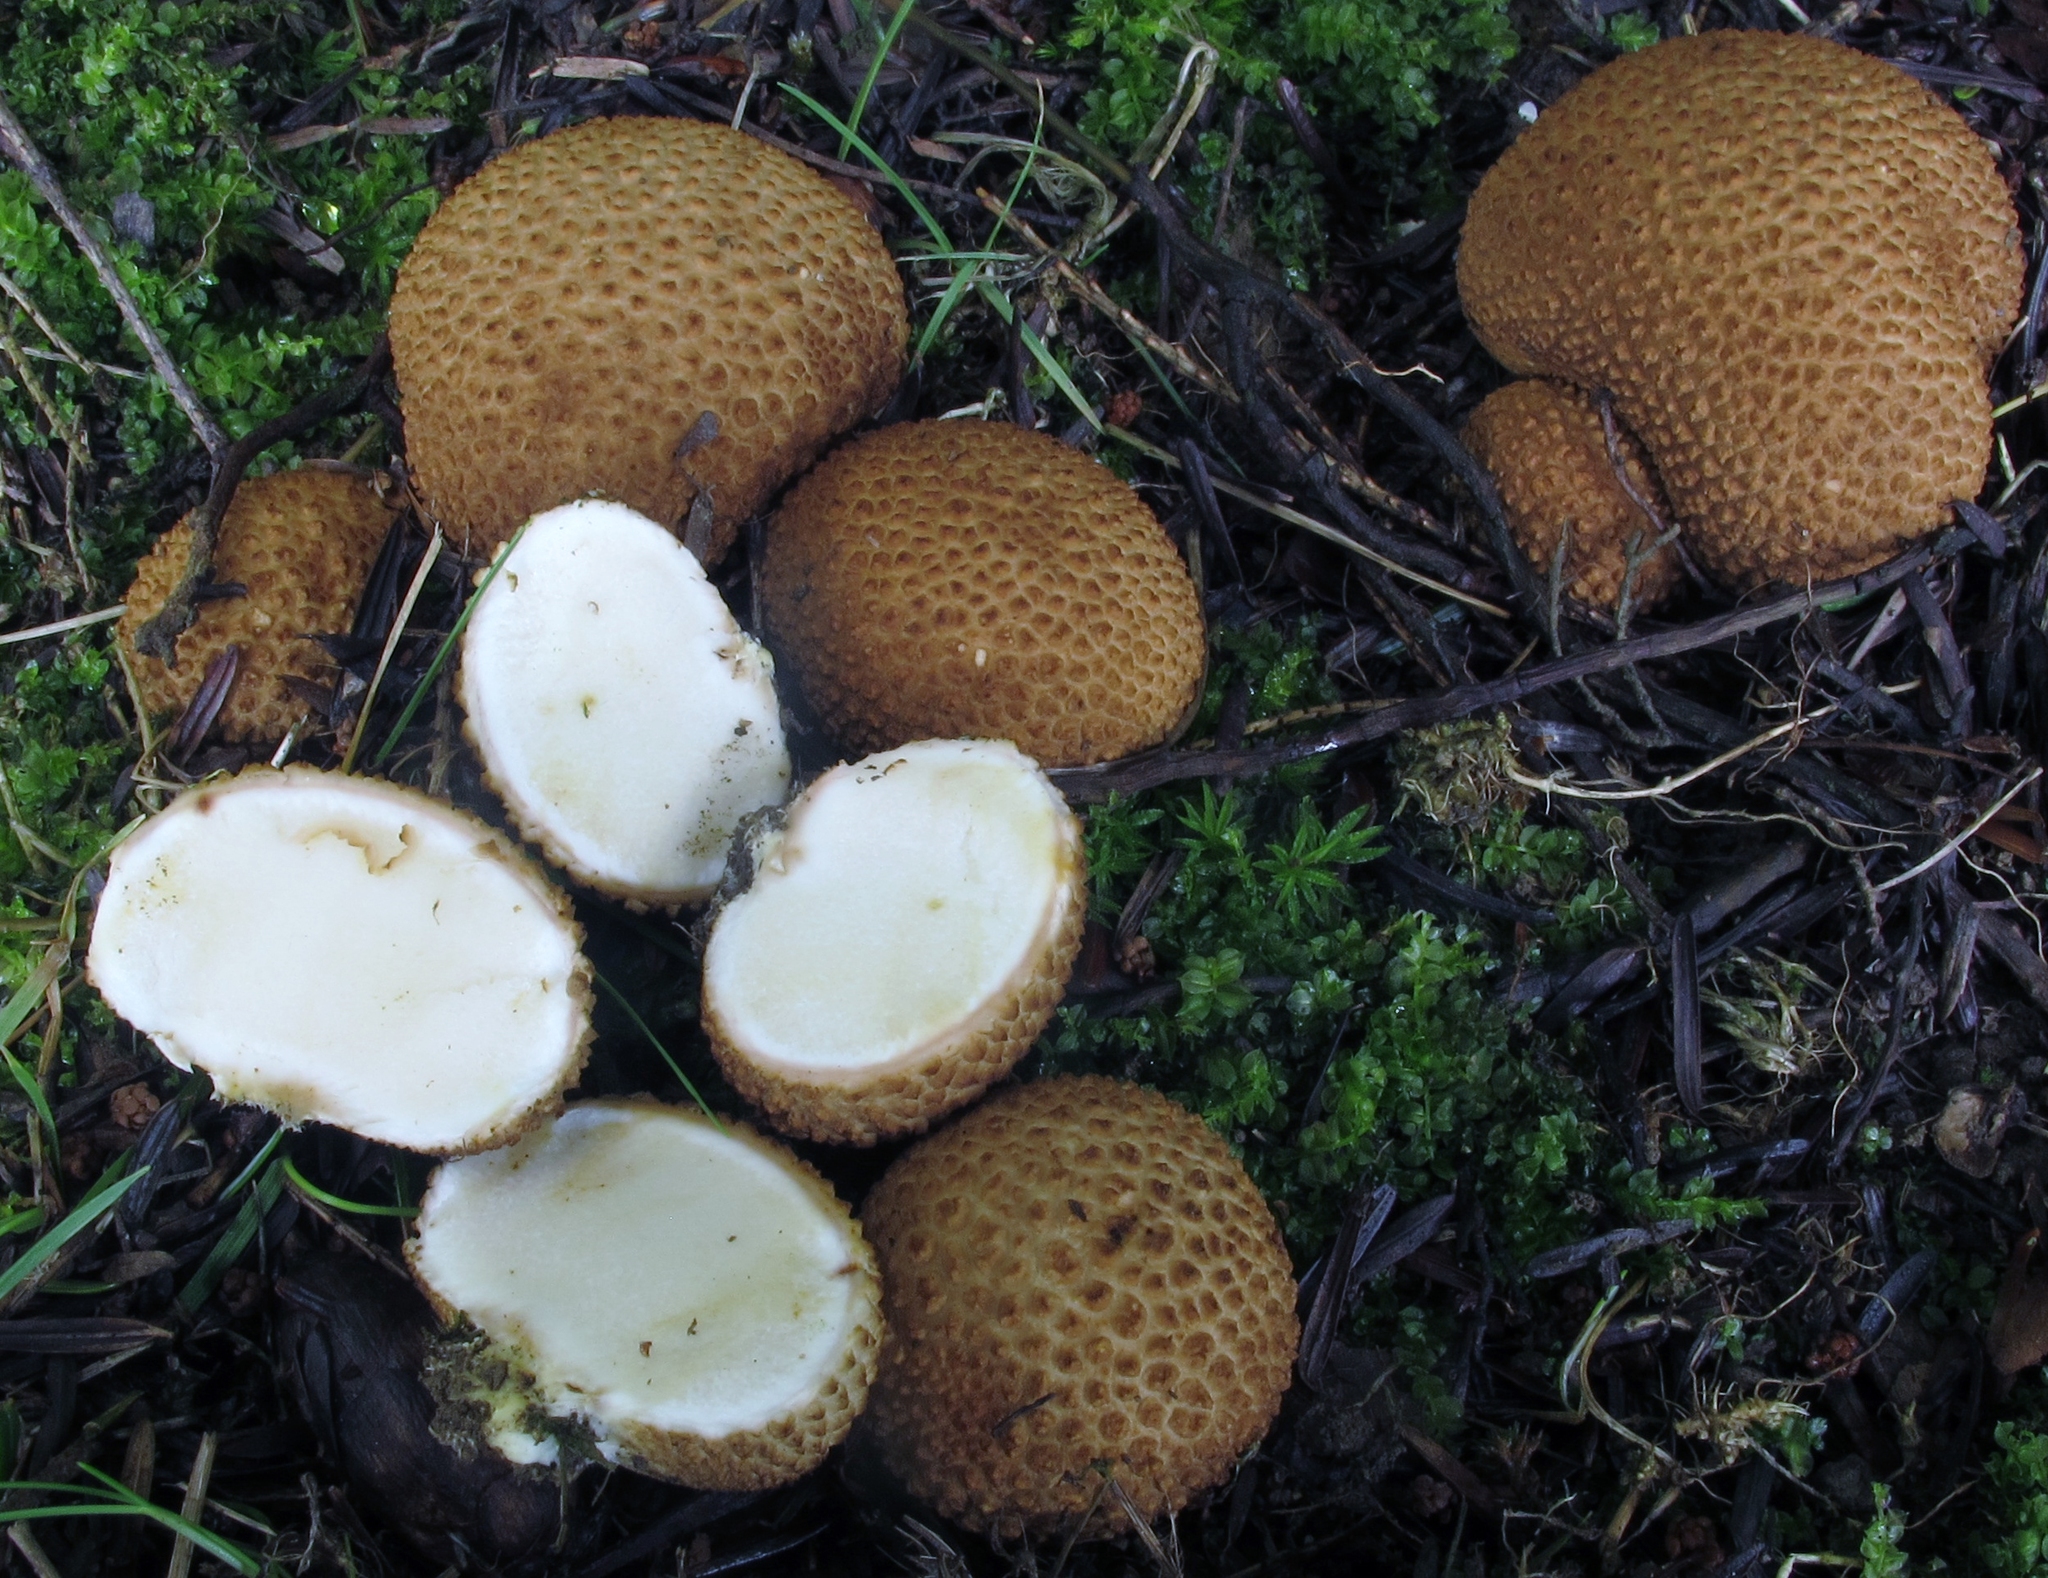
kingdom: Fungi
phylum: Basidiomycota
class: Agaricomycetes
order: Boletales
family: Sclerodermataceae
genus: Scleroderma
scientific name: Scleroderma citrinum
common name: Common earthball
